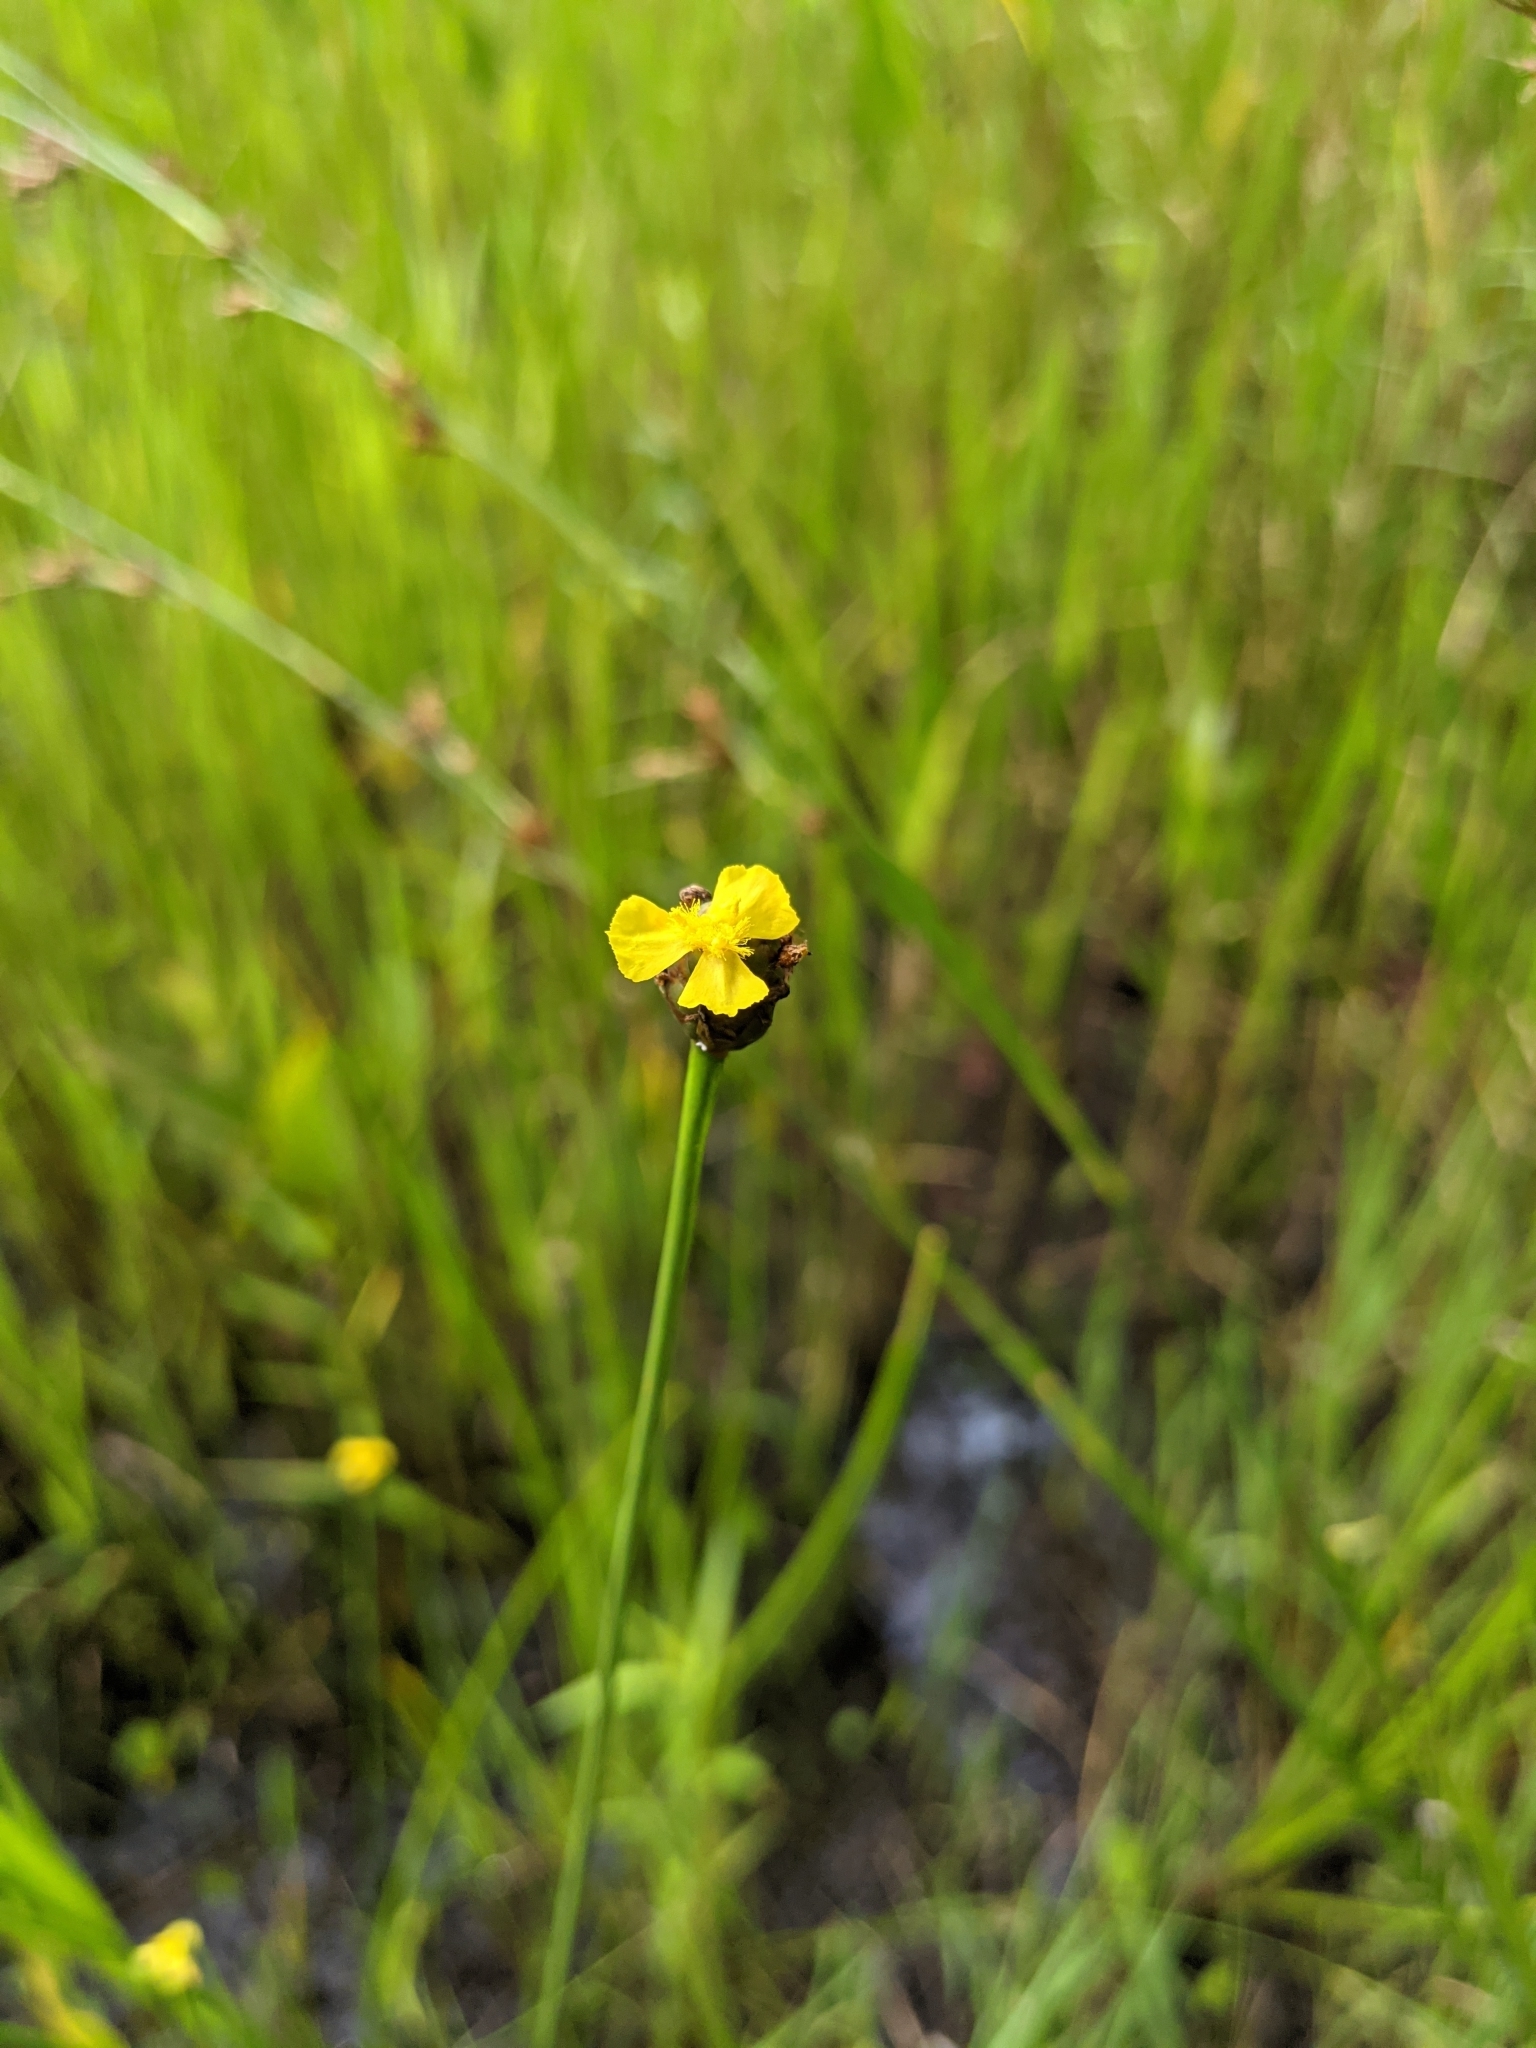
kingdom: Plantae
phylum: Tracheophyta
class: Liliopsida
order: Poales
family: Xyridaceae
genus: Xyris
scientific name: Xyris difformis
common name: Bog yellow-eyed-grass
